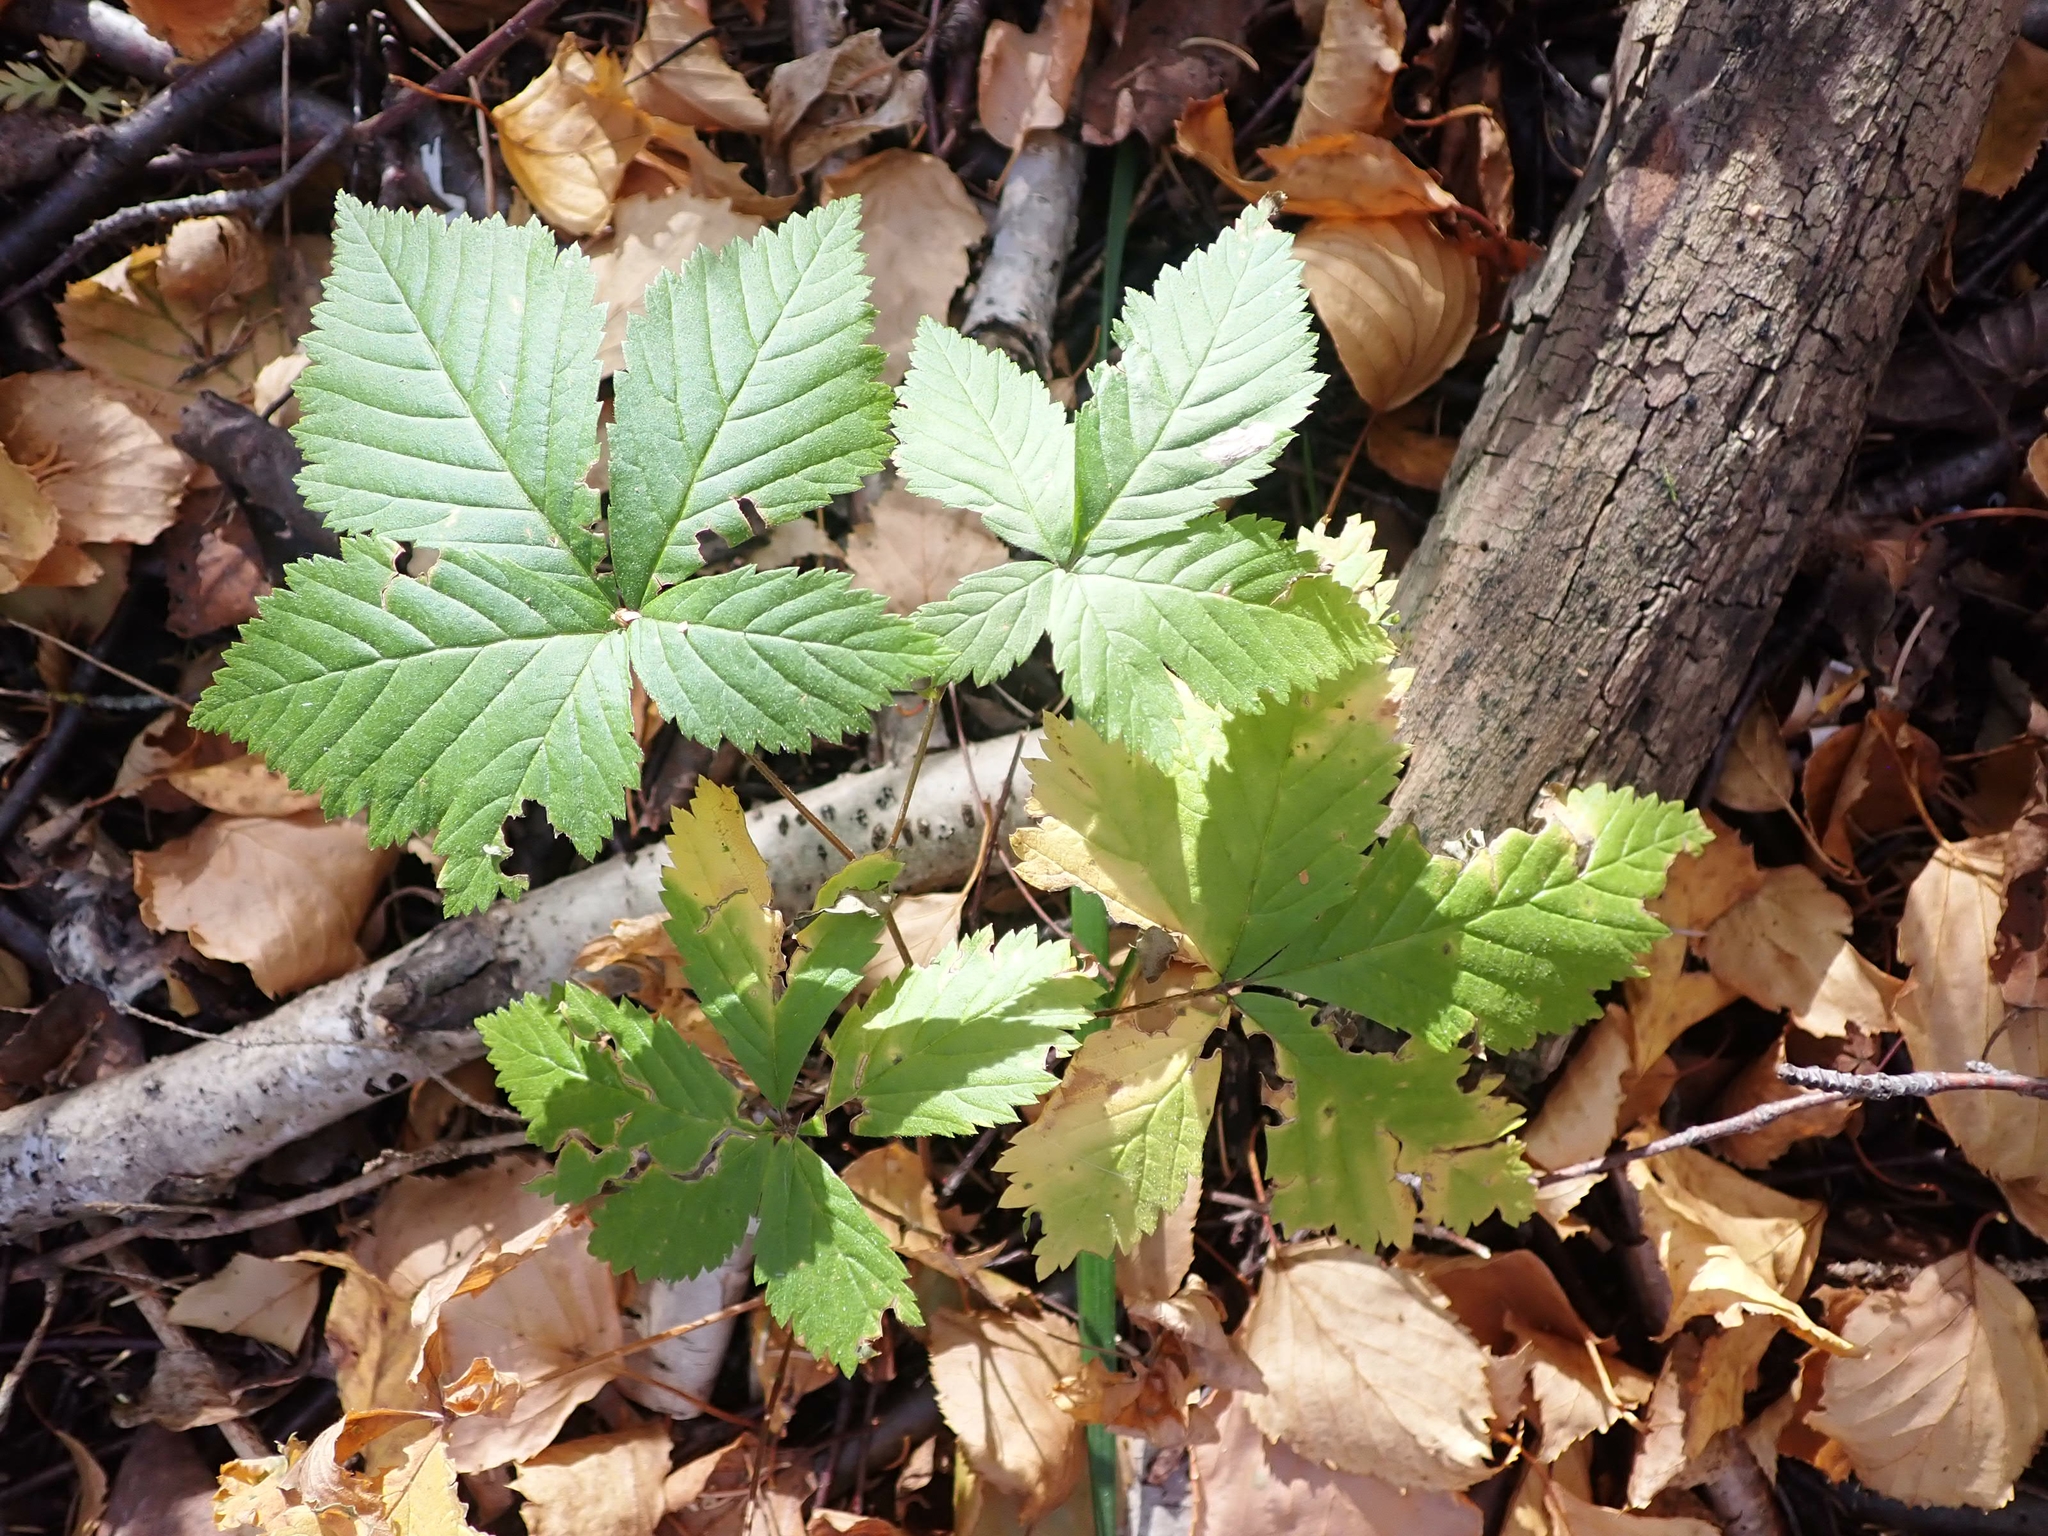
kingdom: Plantae
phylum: Tracheophyta
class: Magnoliopsida
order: Rosales
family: Rosaceae
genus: Rubus
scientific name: Rubus pubescens
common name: Dwarf raspberry
